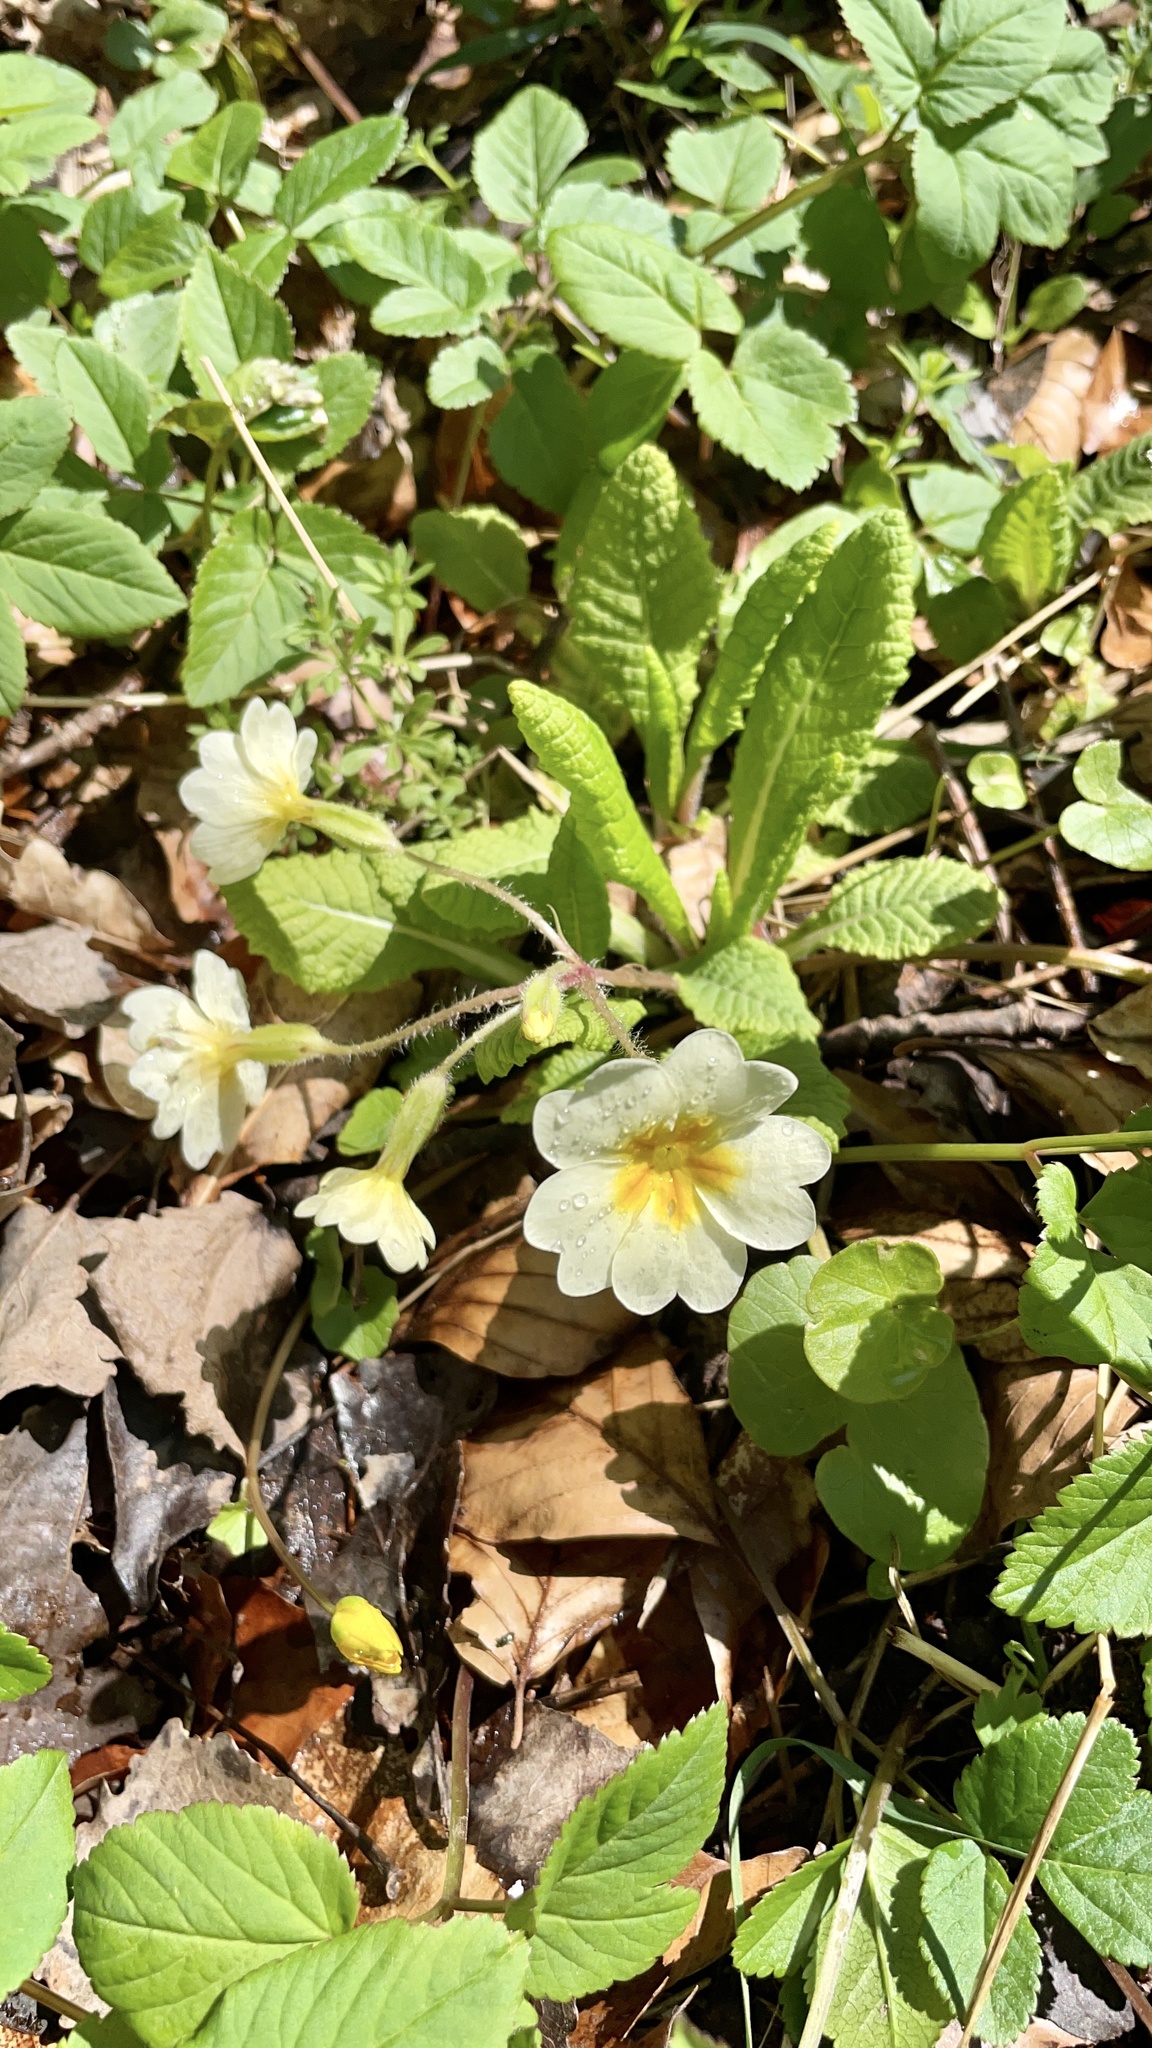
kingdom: Plantae
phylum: Tracheophyta
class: Magnoliopsida
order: Ericales
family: Primulaceae
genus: Primula
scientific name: Primula vulgaris
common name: Primrose
